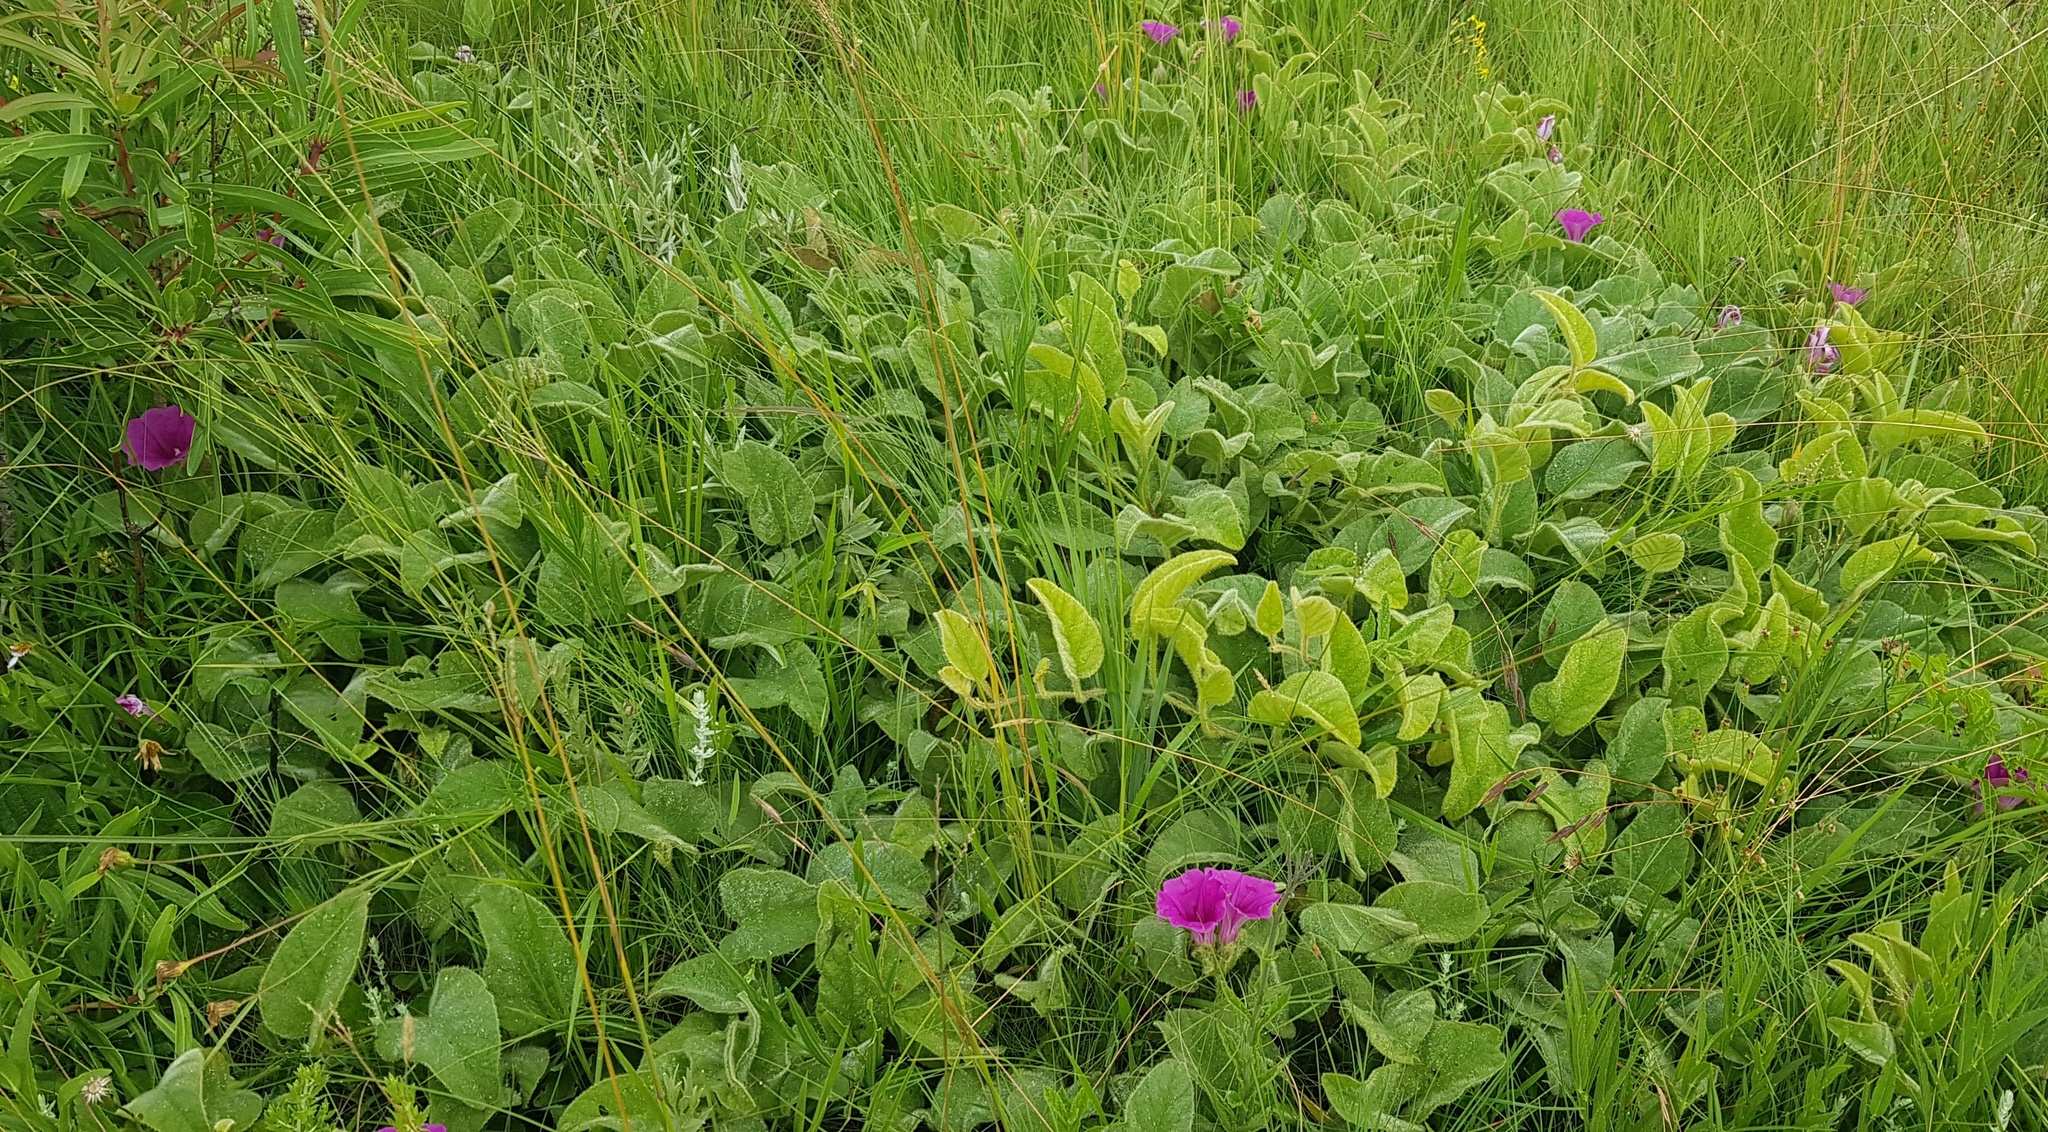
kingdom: Plantae
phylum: Tracheophyta
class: Magnoliopsida
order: Solanales
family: Convolvulaceae
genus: Ipomoea
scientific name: Ipomoea pellita
